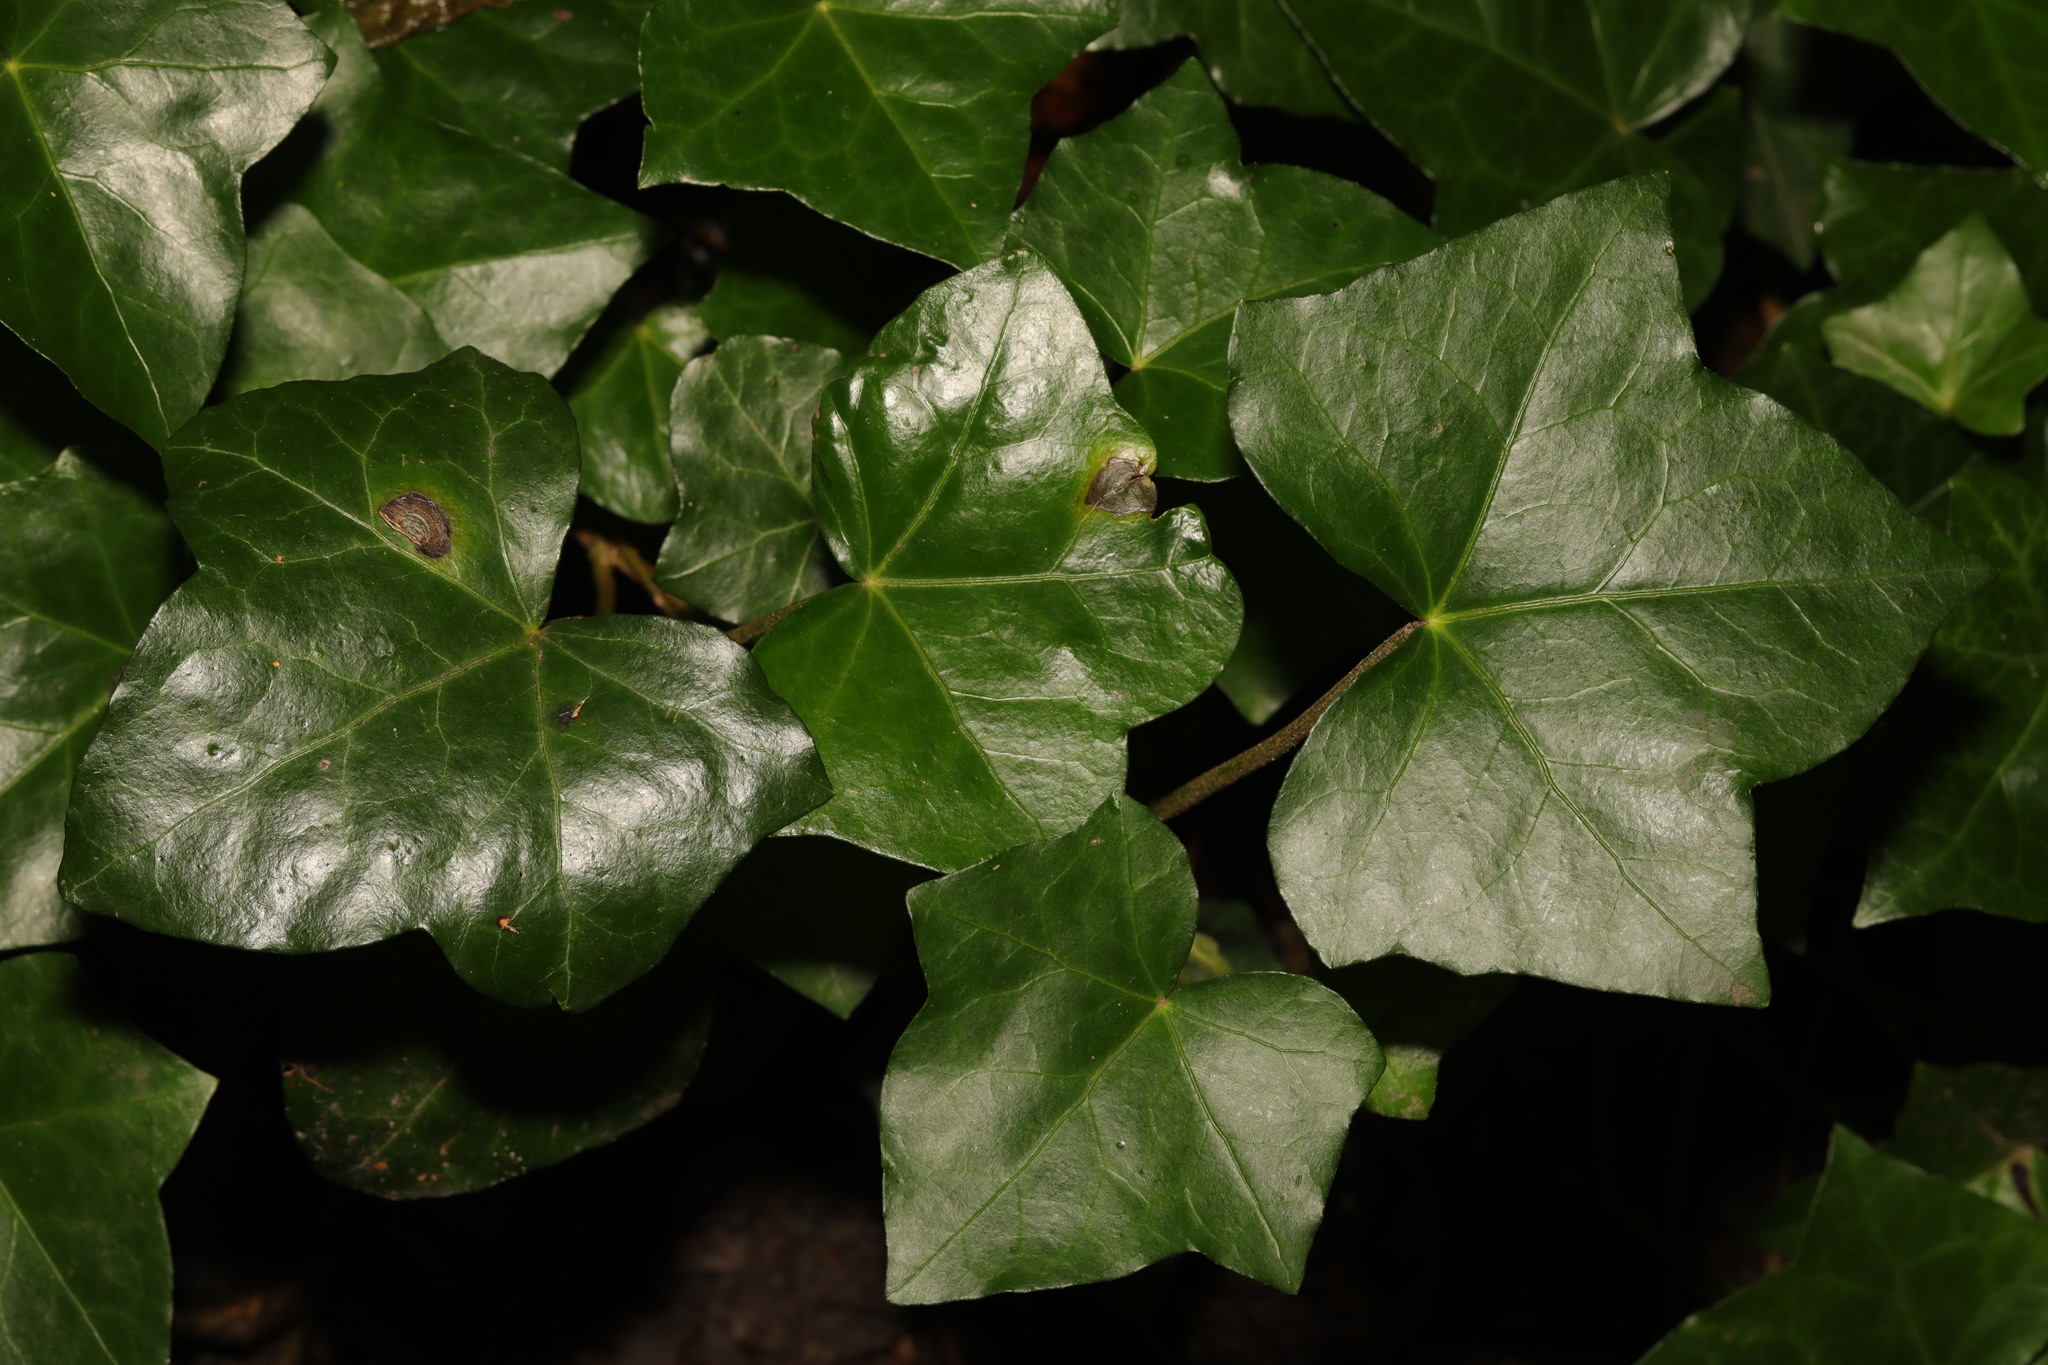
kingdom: Plantae
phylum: Tracheophyta
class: Magnoliopsida
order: Apiales
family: Araliaceae
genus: Hedera
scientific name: Hedera helix
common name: Ivy
